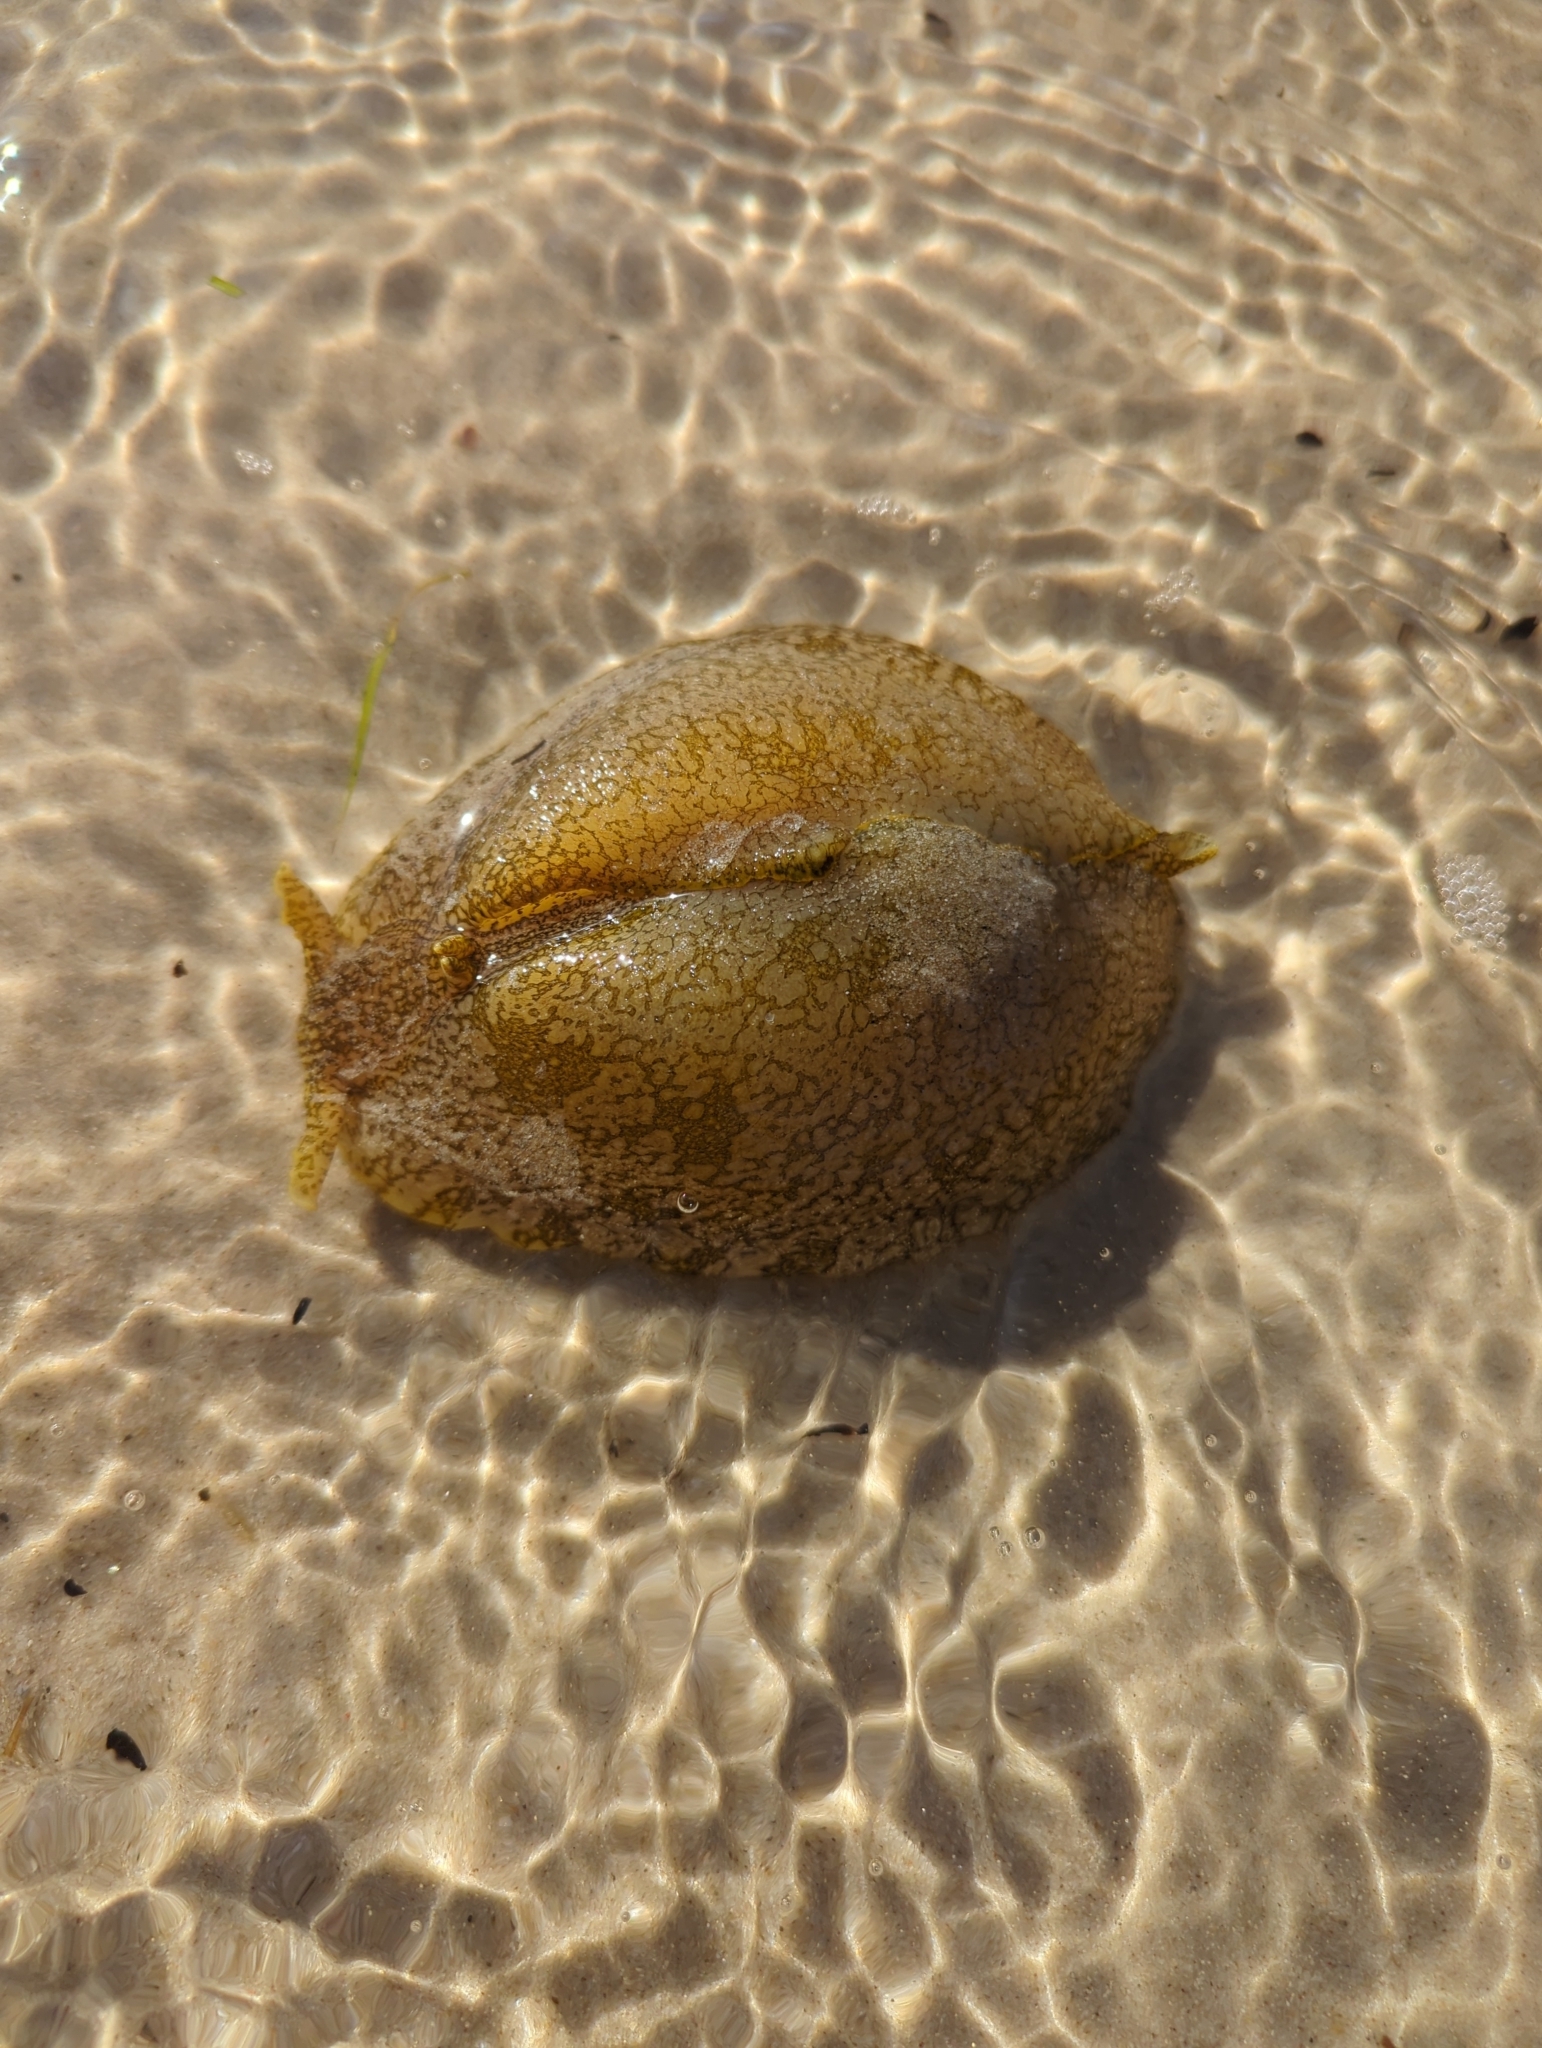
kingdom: Animalia
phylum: Mollusca
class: Gastropoda
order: Aplysiida
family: Aplysiidae
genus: Syphonota
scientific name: Syphonota geographica
